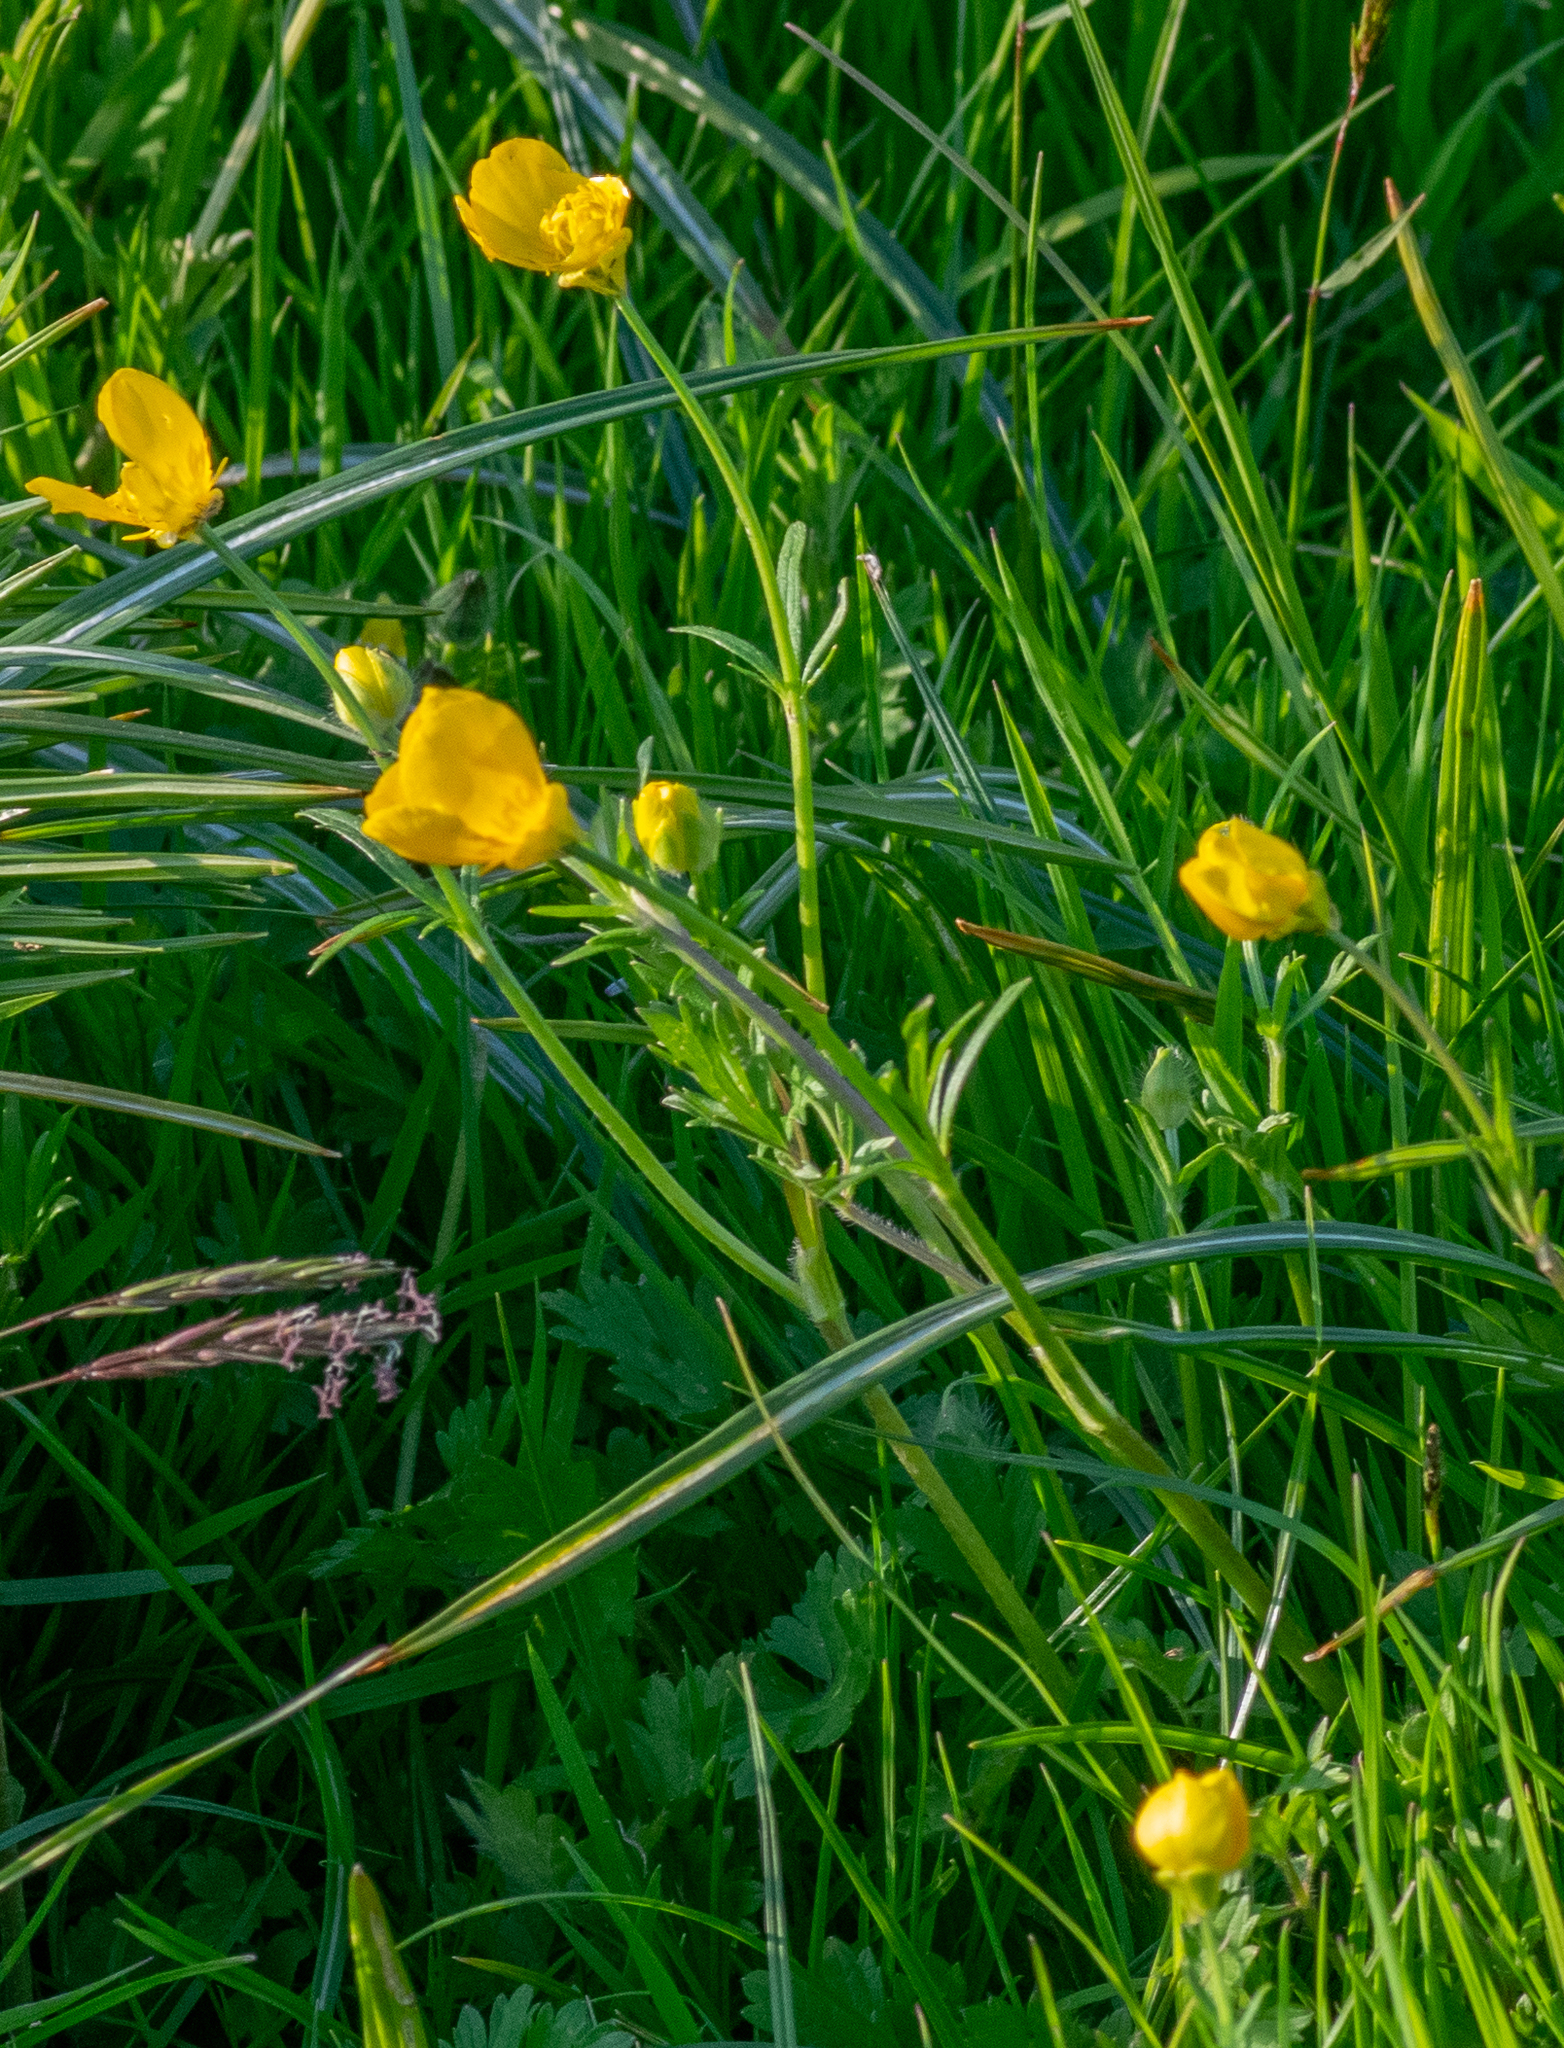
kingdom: Plantae
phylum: Tracheophyta
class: Magnoliopsida
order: Ranunculales
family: Ranunculaceae
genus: Ranunculus
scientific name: Ranunculus bulbosus
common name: Bulbous buttercup
